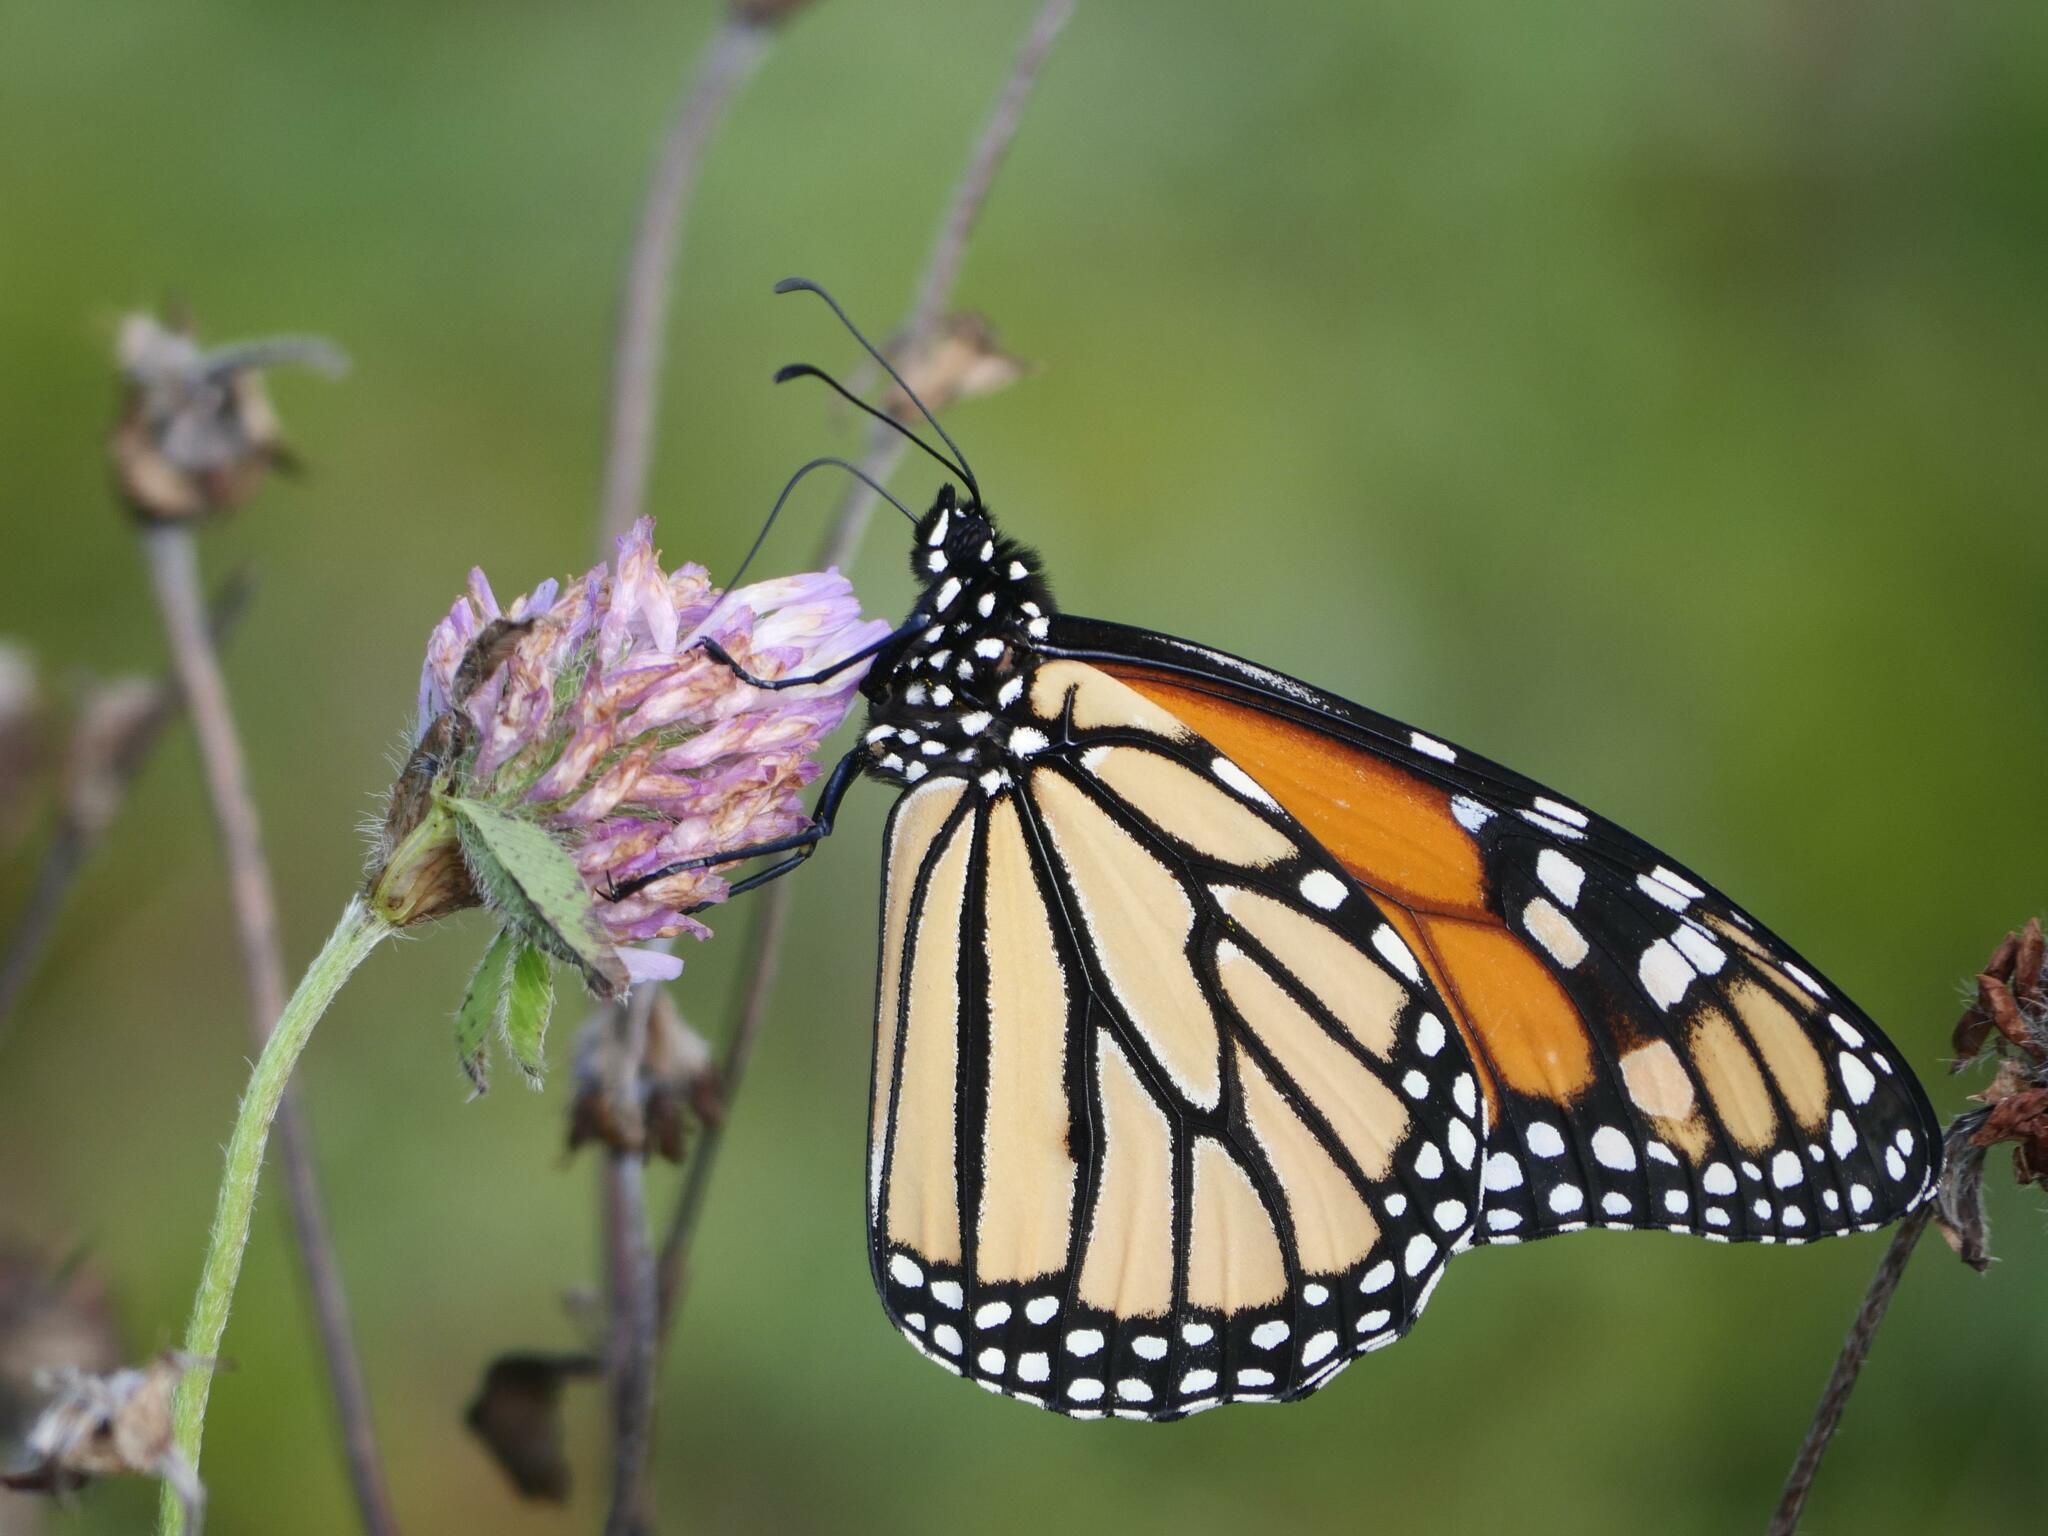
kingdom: Animalia
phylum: Arthropoda
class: Insecta
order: Lepidoptera
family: Nymphalidae
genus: Danaus
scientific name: Danaus plexippus
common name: Monarch
